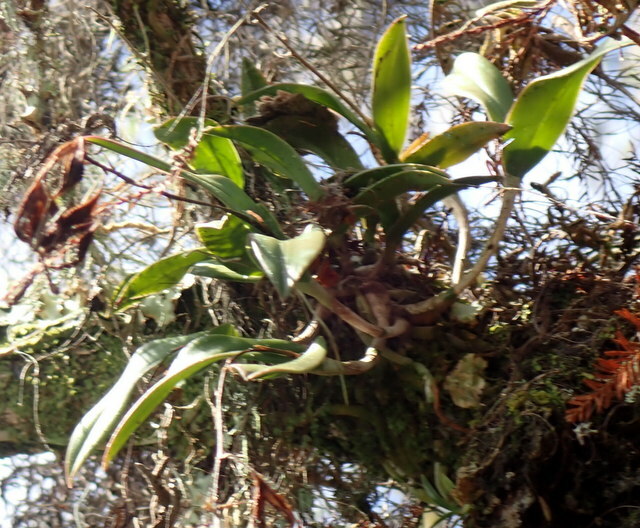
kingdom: Plantae
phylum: Tracheophyta
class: Liliopsida
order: Asparagales
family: Orchidaceae
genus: Epidendrum
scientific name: Epidendrum conopseum
